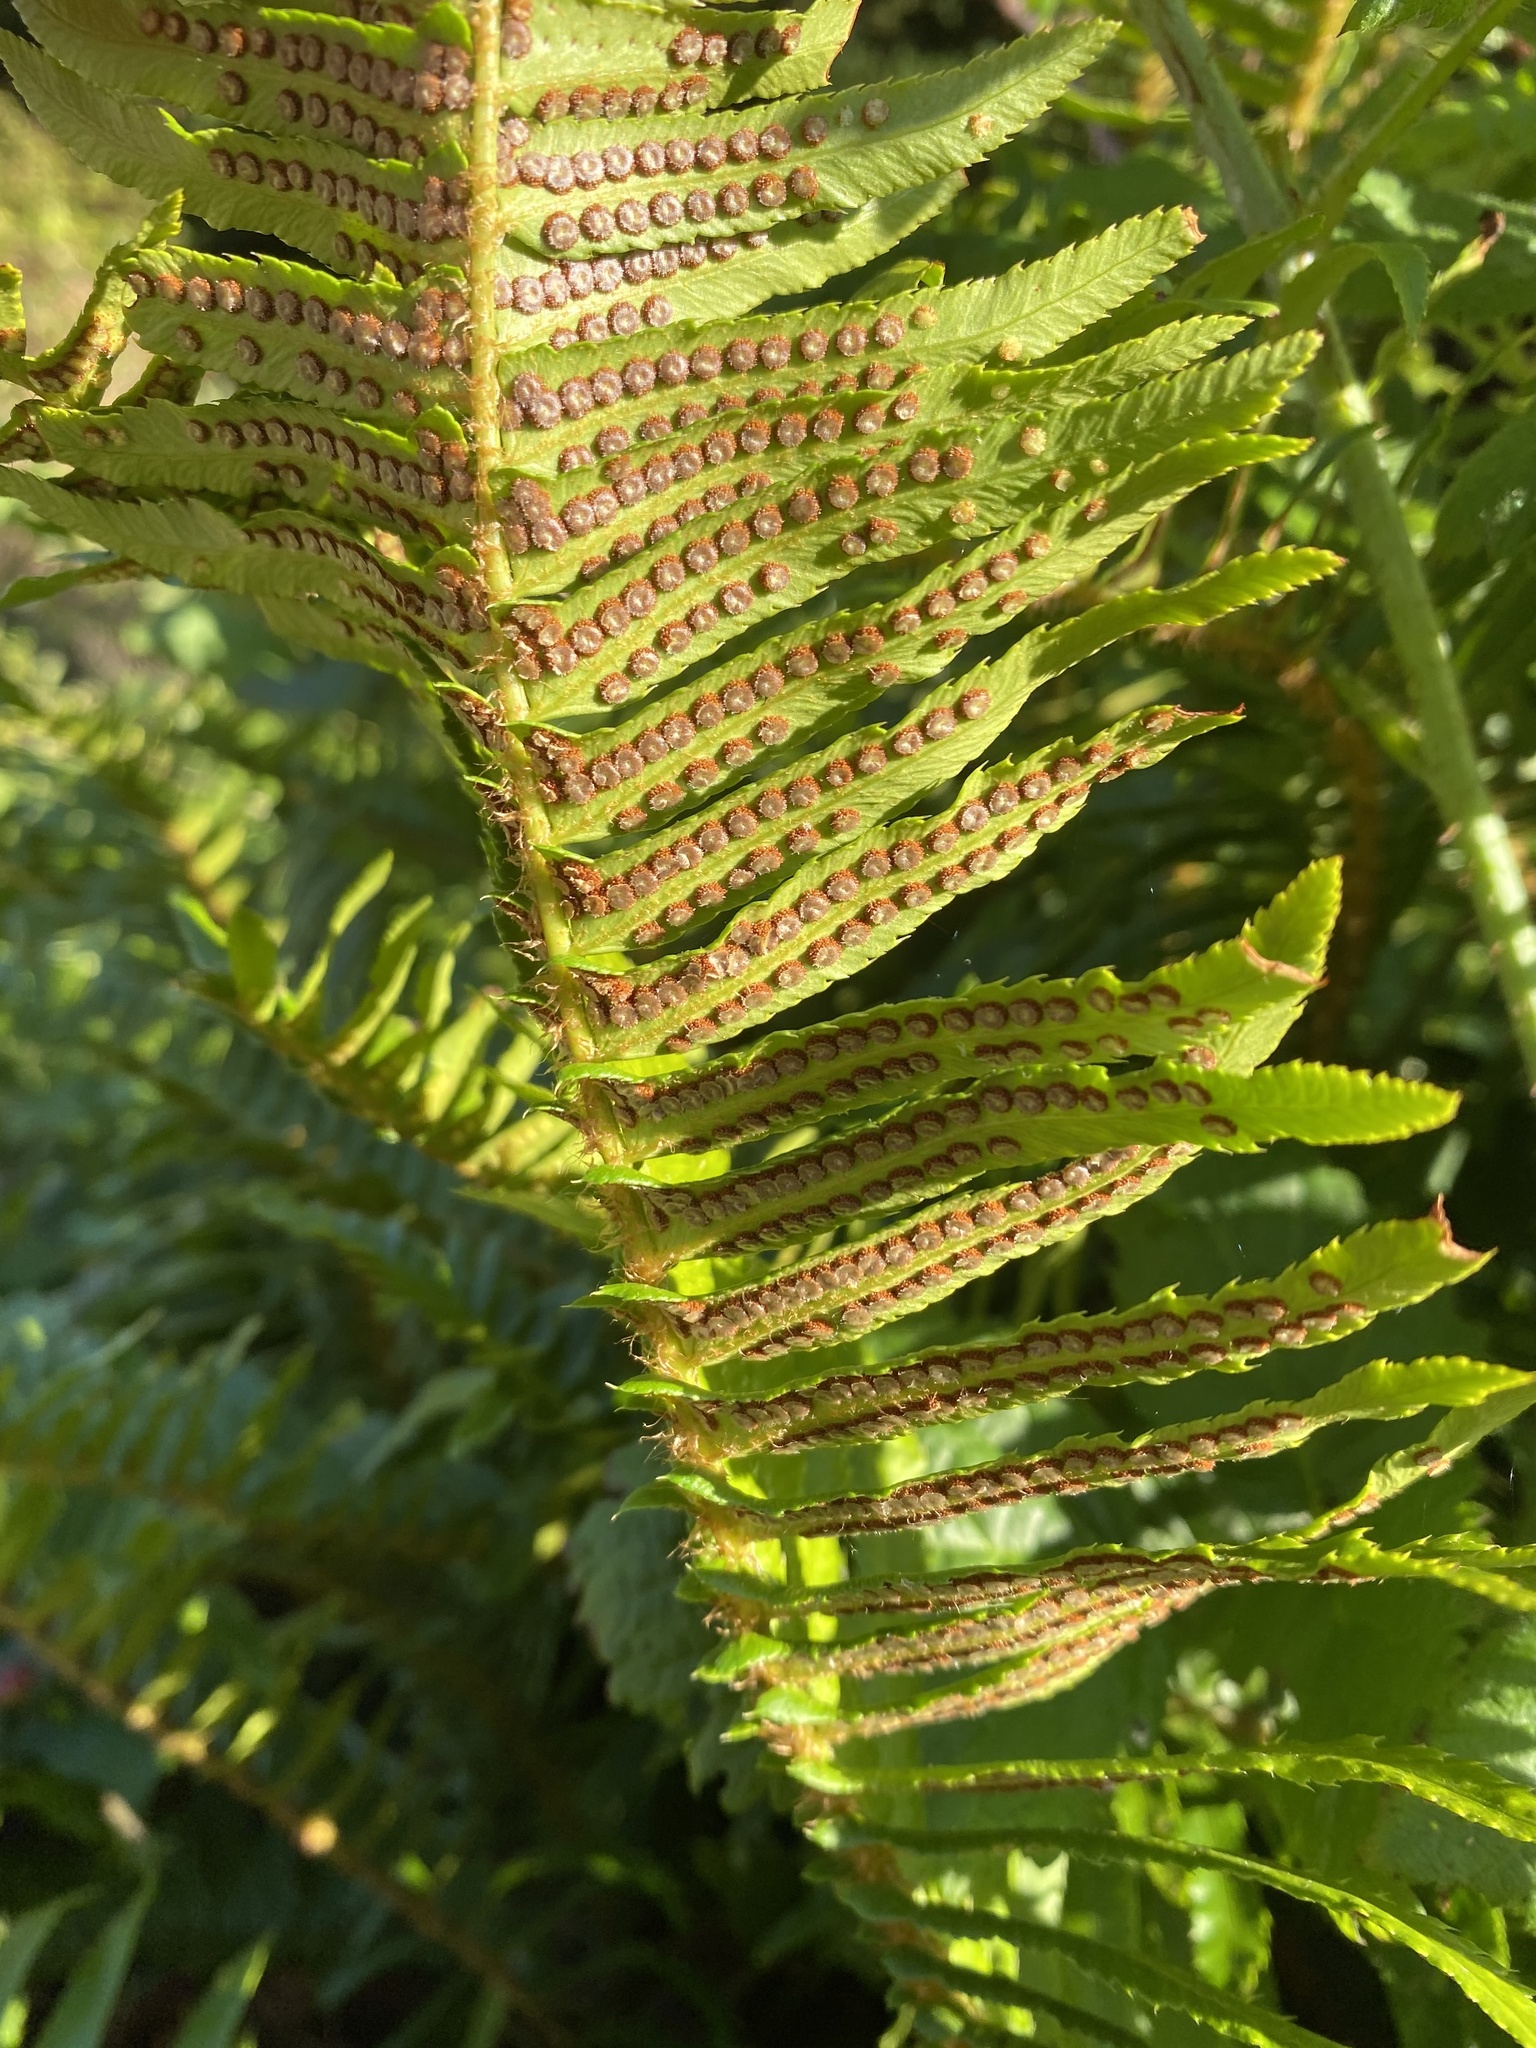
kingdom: Plantae
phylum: Tracheophyta
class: Polypodiopsida
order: Polypodiales
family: Dryopteridaceae
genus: Polystichum
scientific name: Polystichum munitum
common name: Western sword-fern
